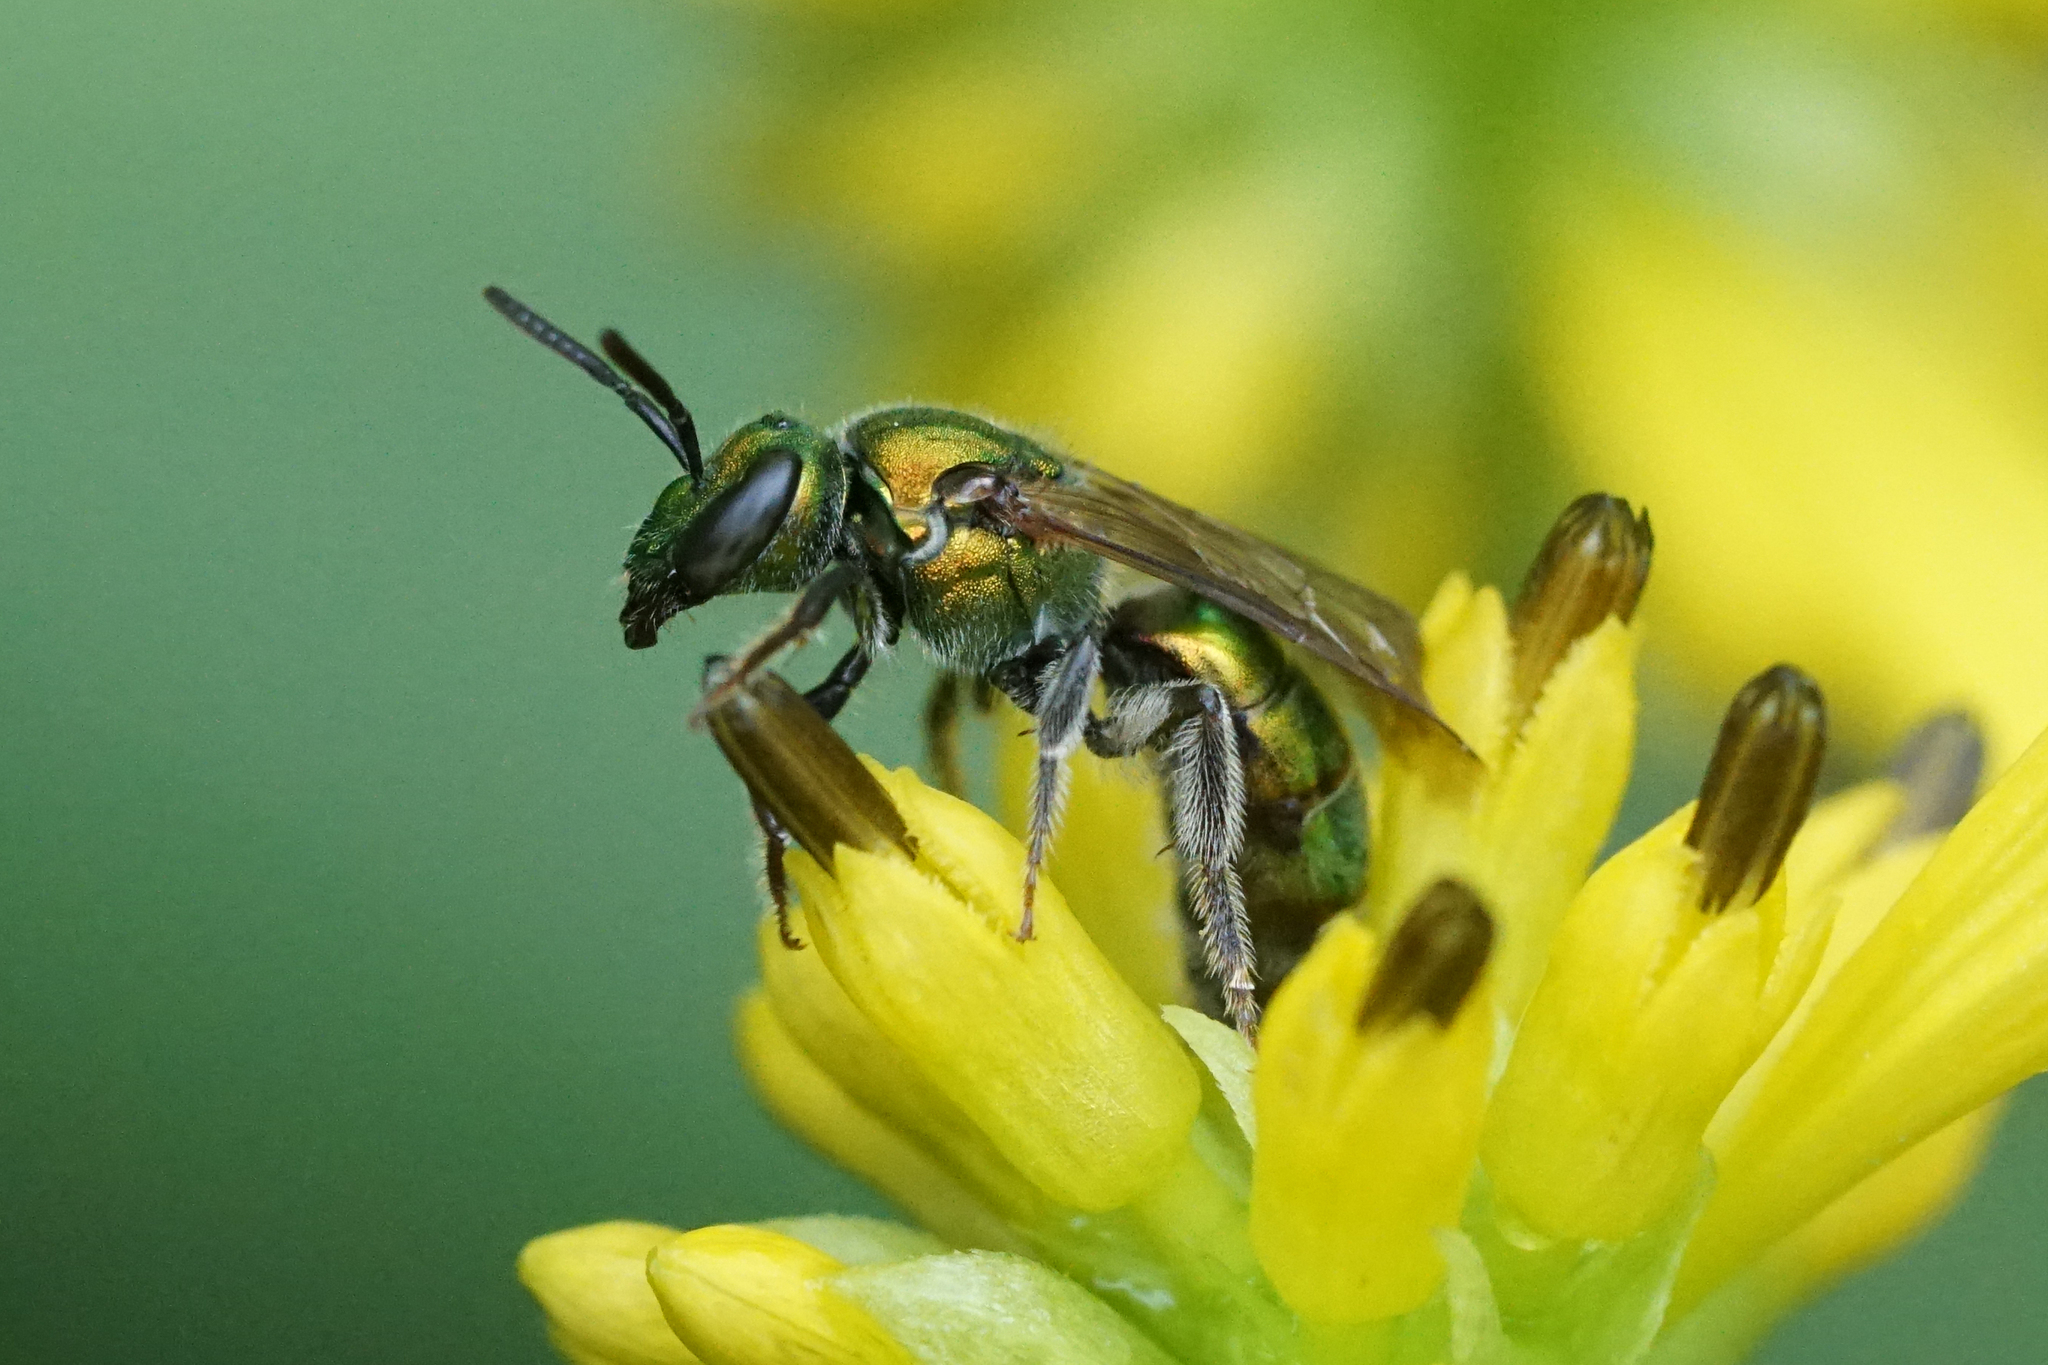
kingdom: Animalia
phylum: Arthropoda
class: Insecta
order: Hymenoptera
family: Halictidae
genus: Augochlora
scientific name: Augochlora pura
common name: Pure green sweat bee
